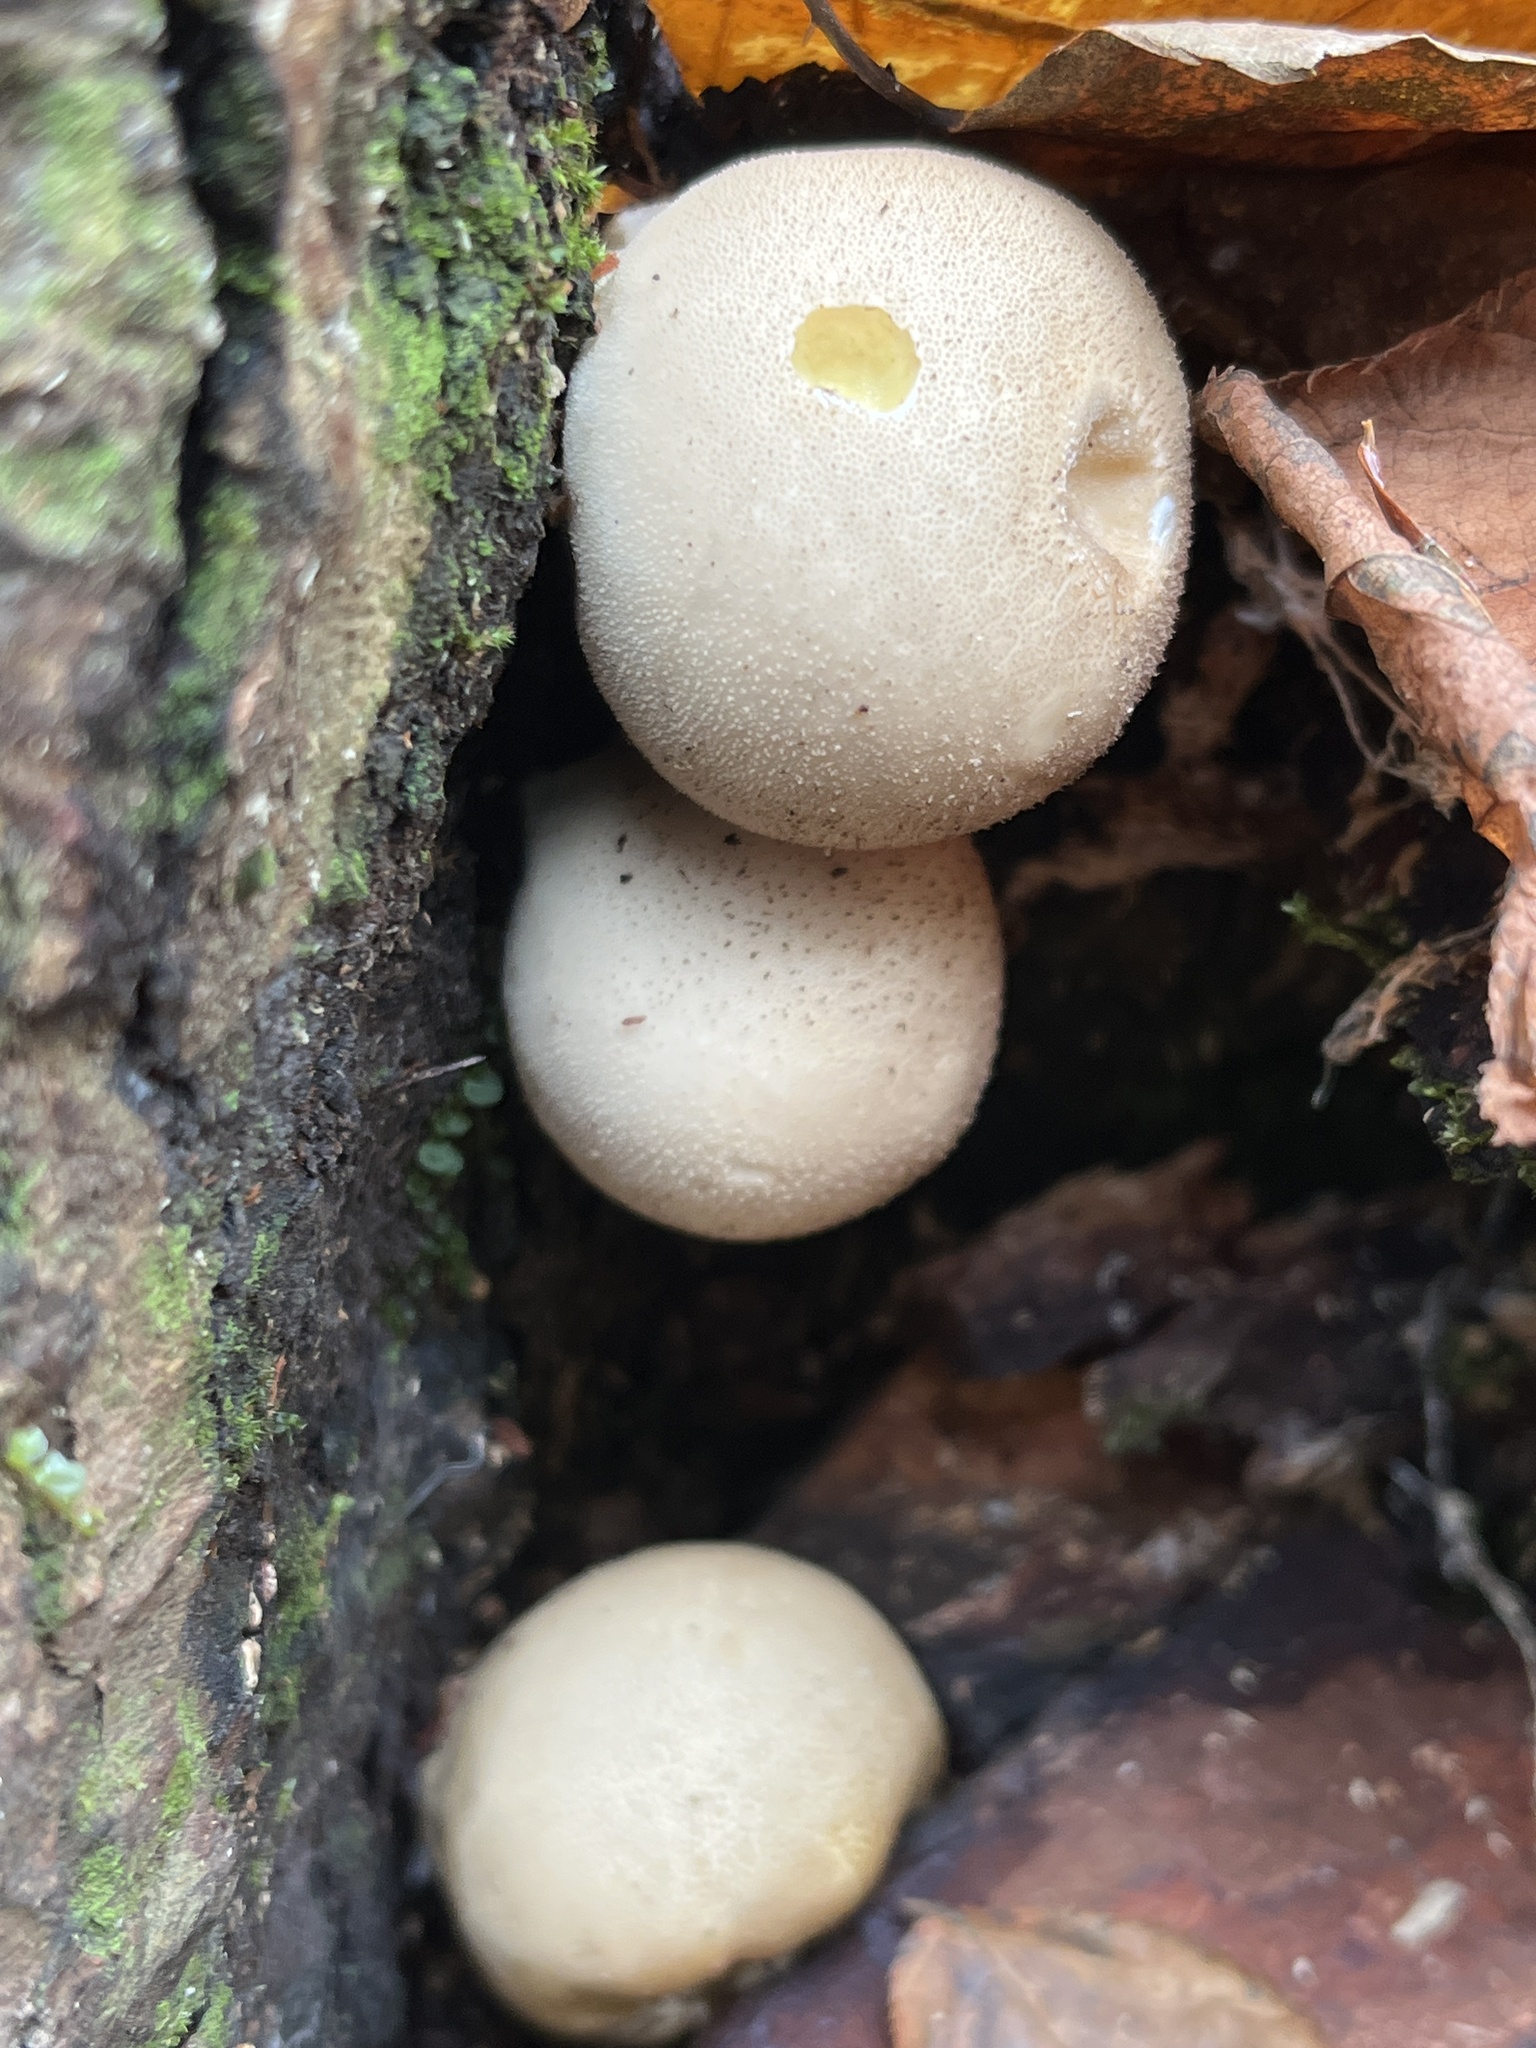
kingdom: Fungi
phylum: Basidiomycota
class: Agaricomycetes
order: Agaricales
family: Lycoperdaceae
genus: Apioperdon
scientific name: Apioperdon pyriforme
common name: Pear-shaped puffball
